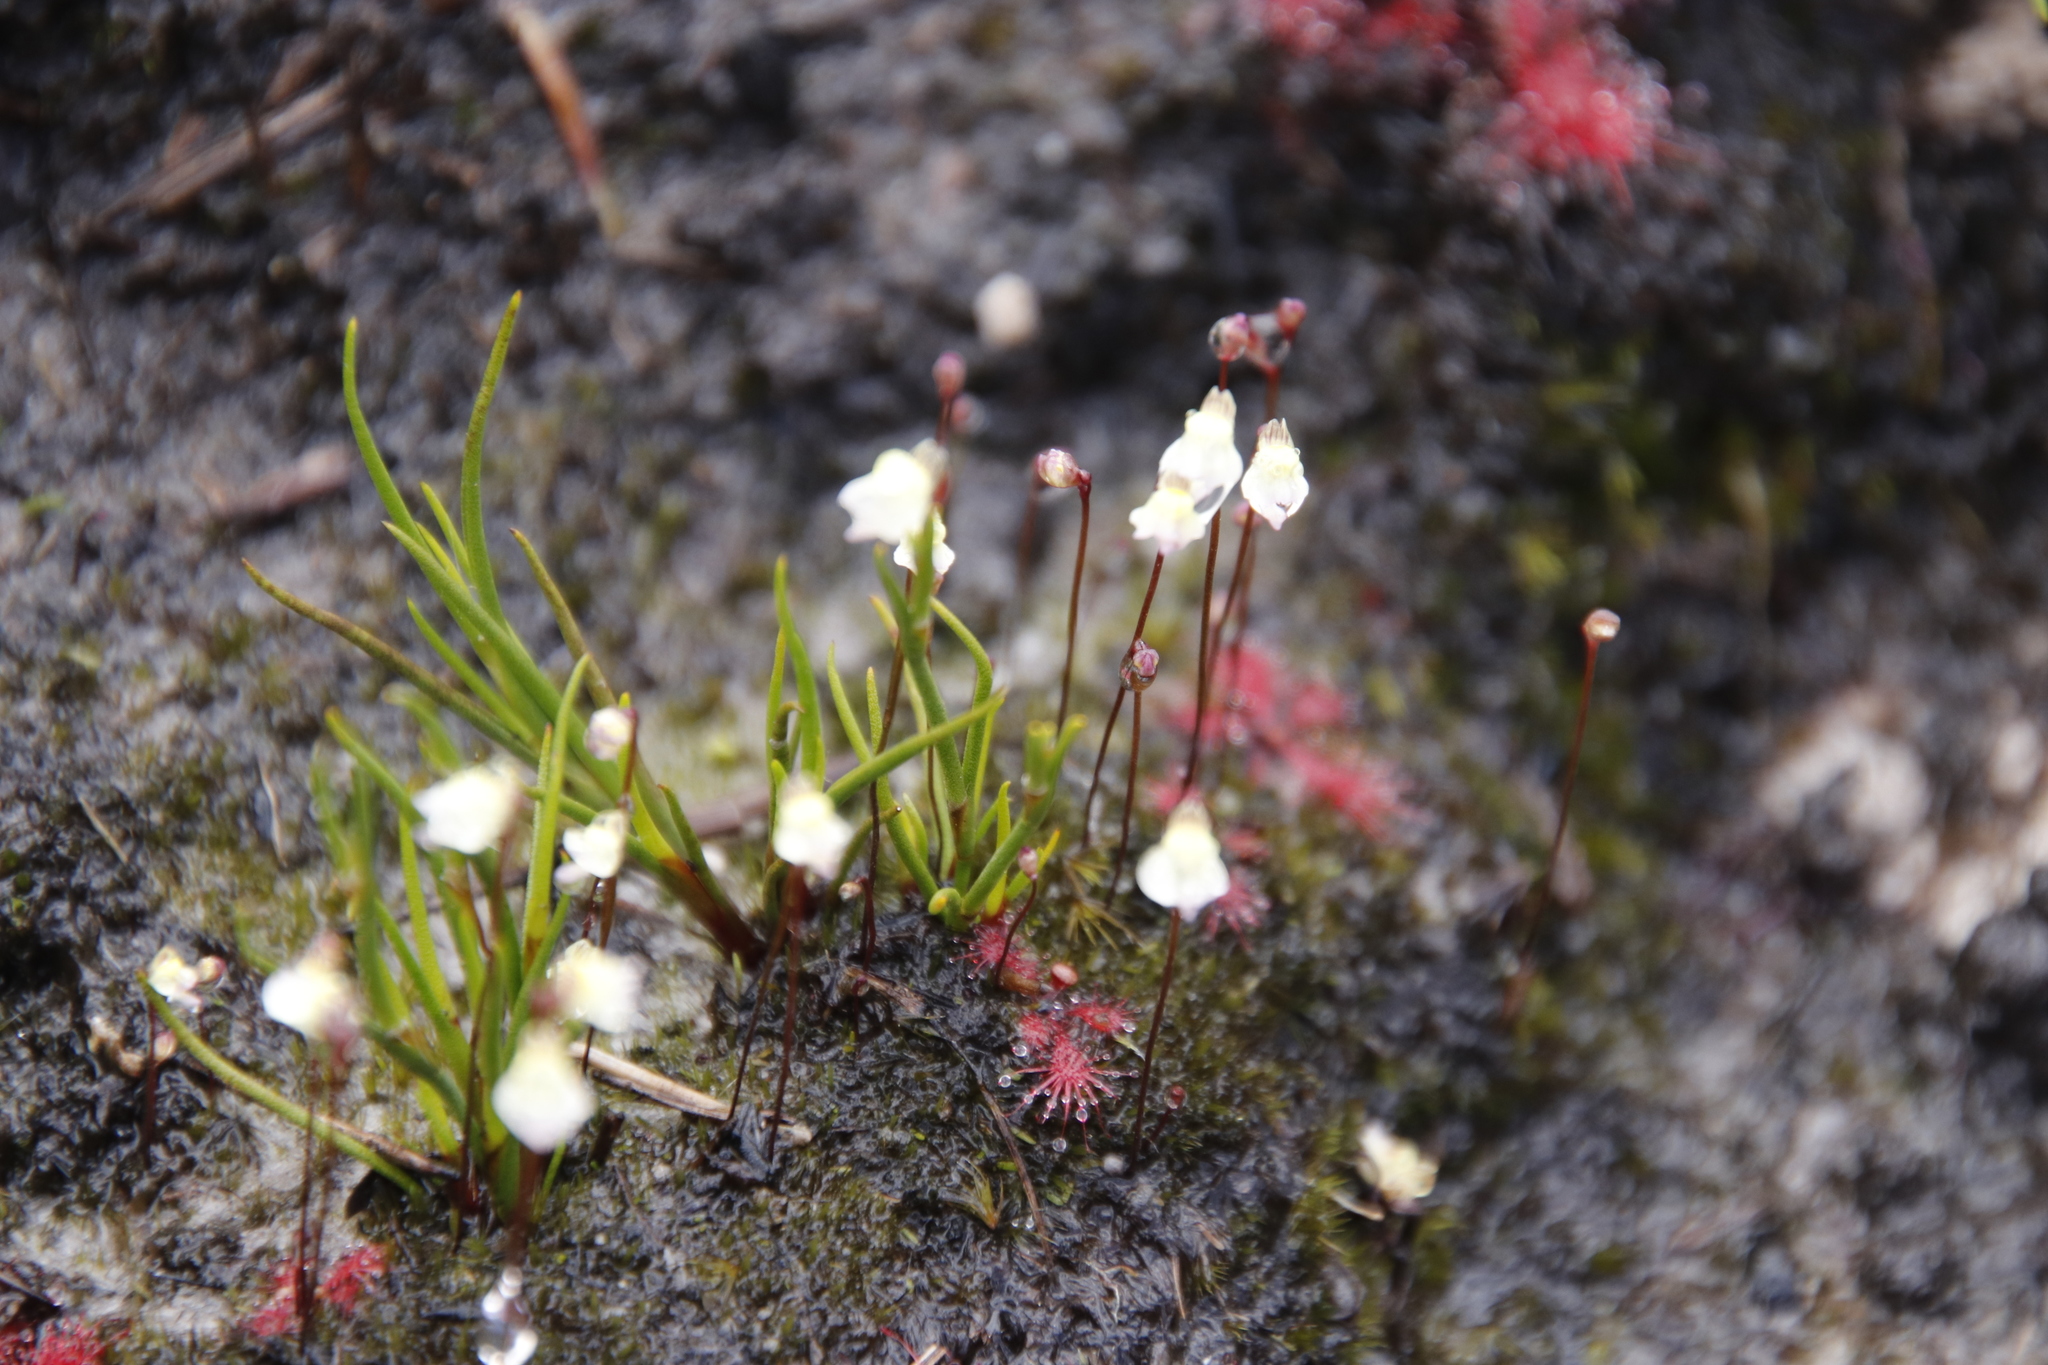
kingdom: Plantae
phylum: Tracheophyta
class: Magnoliopsida
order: Lamiales
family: Lentibulariaceae
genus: Utricularia
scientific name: Utricularia bisquamata
